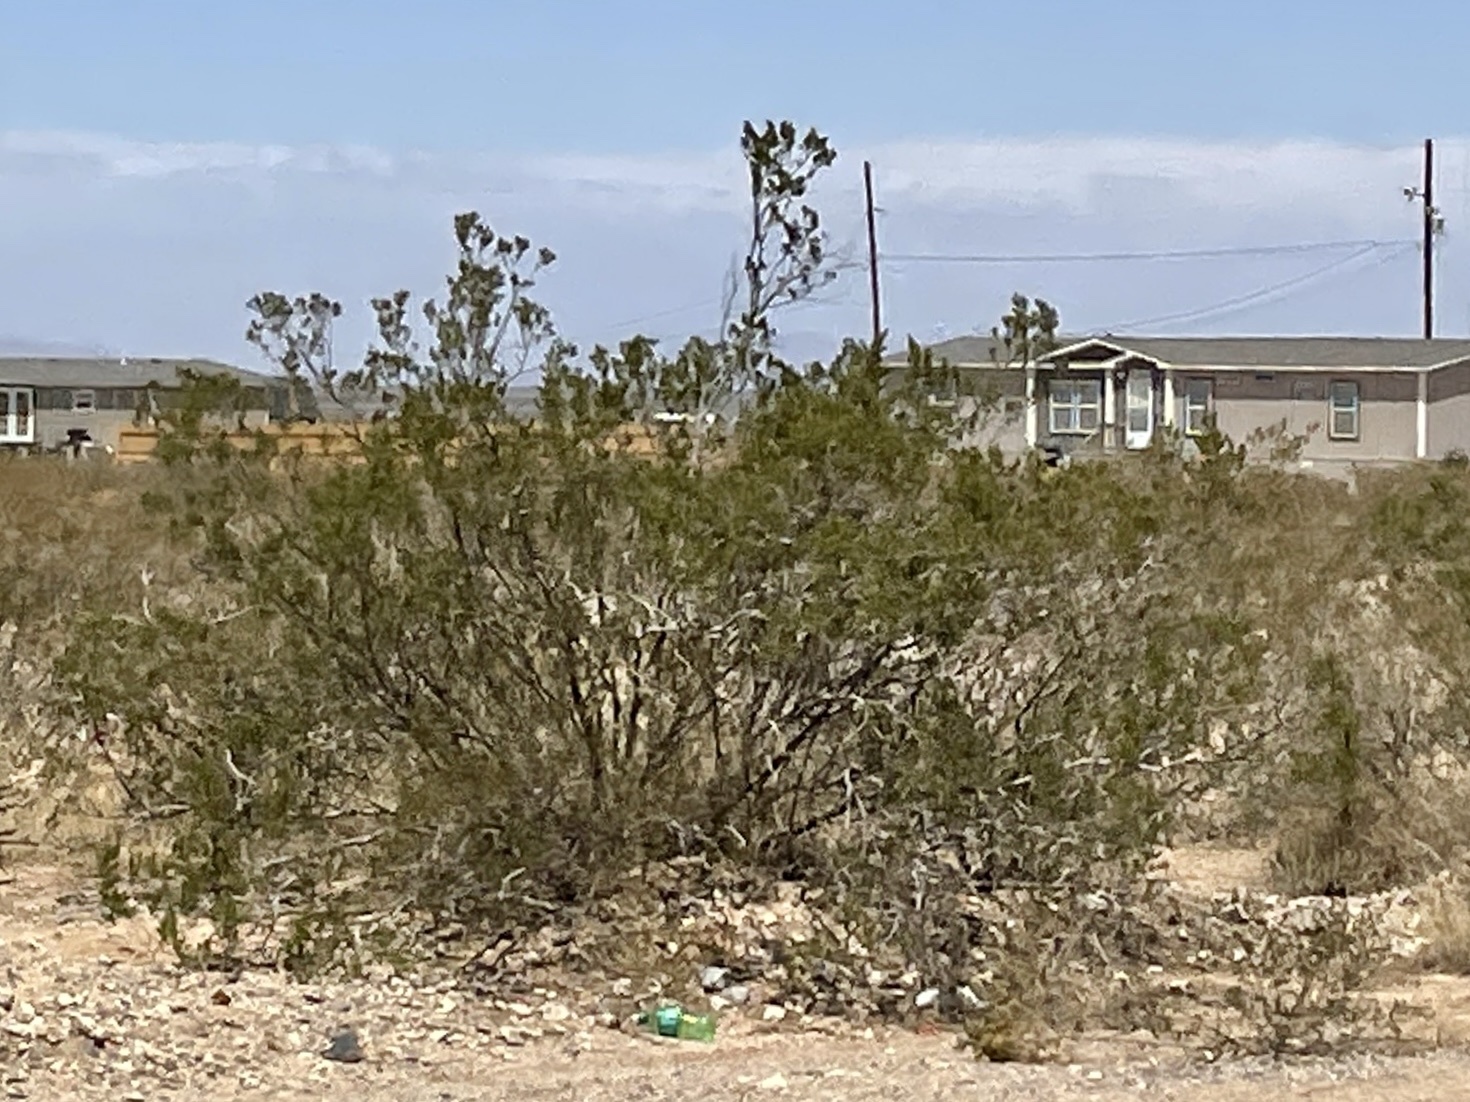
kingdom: Plantae
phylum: Tracheophyta
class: Magnoliopsida
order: Zygophyllales
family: Zygophyllaceae
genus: Larrea
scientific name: Larrea tridentata
